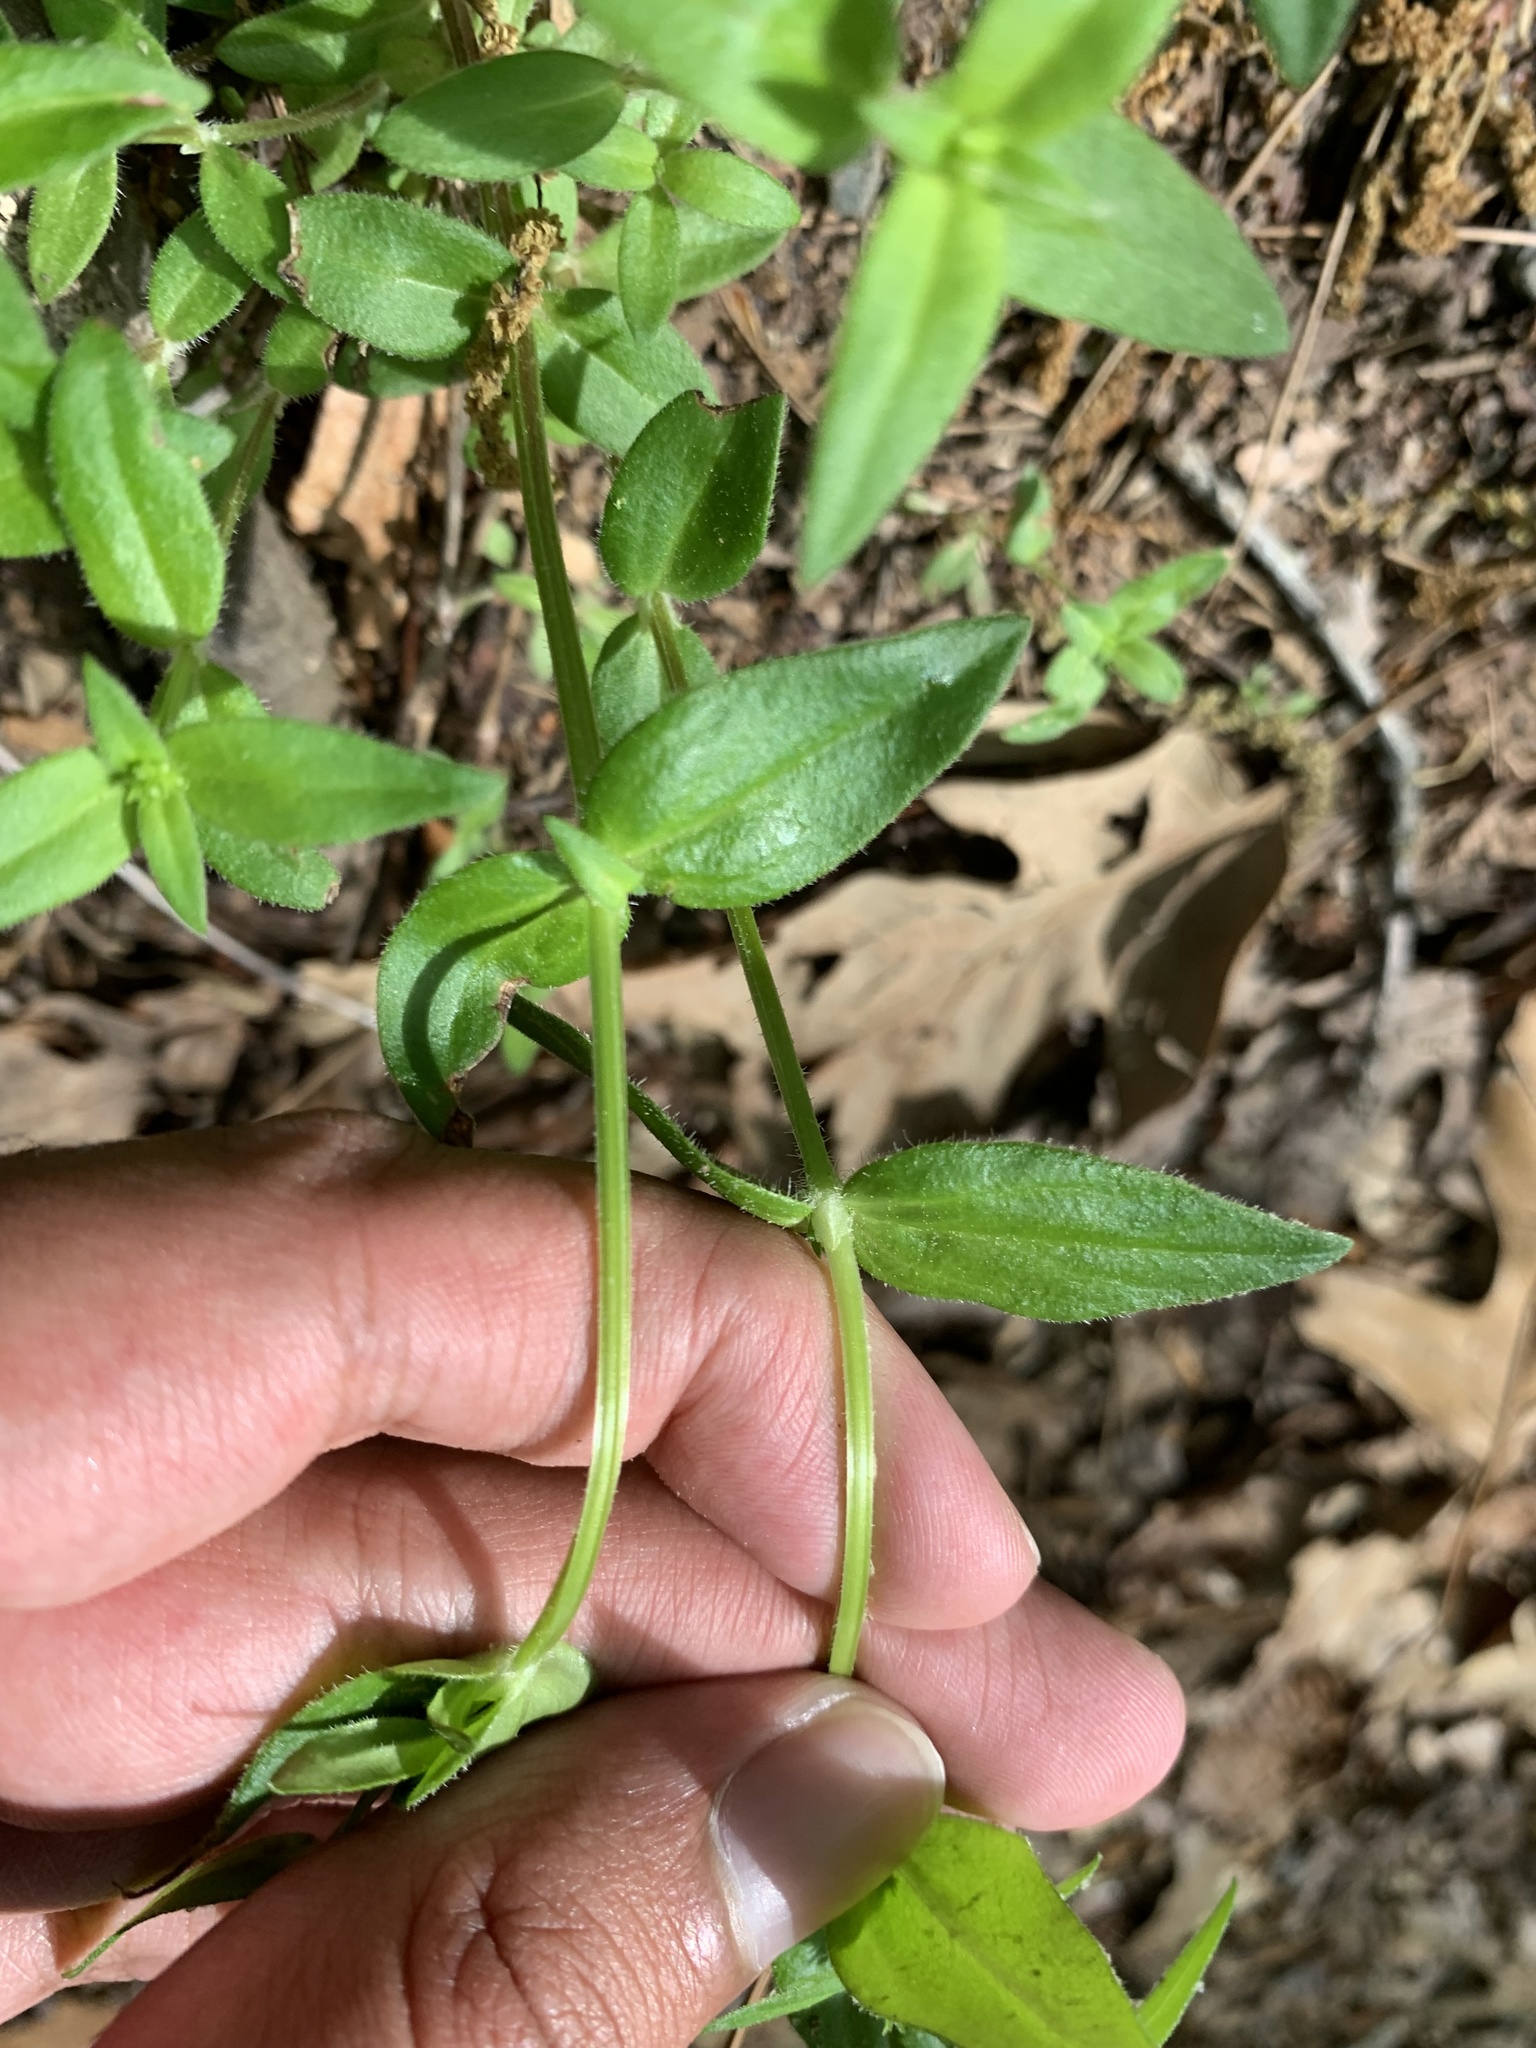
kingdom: Plantae
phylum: Tracheophyta
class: Magnoliopsida
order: Gentianales
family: Rubiaceae
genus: Houstonia
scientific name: Houstonia purpurea
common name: Summer bluet
